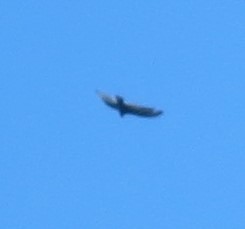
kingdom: Animalia
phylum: Chordata
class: Aves
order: Accipitriformes
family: Cathartidae
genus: Cathartes
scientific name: Cathartes aura
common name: Turkey vulture
